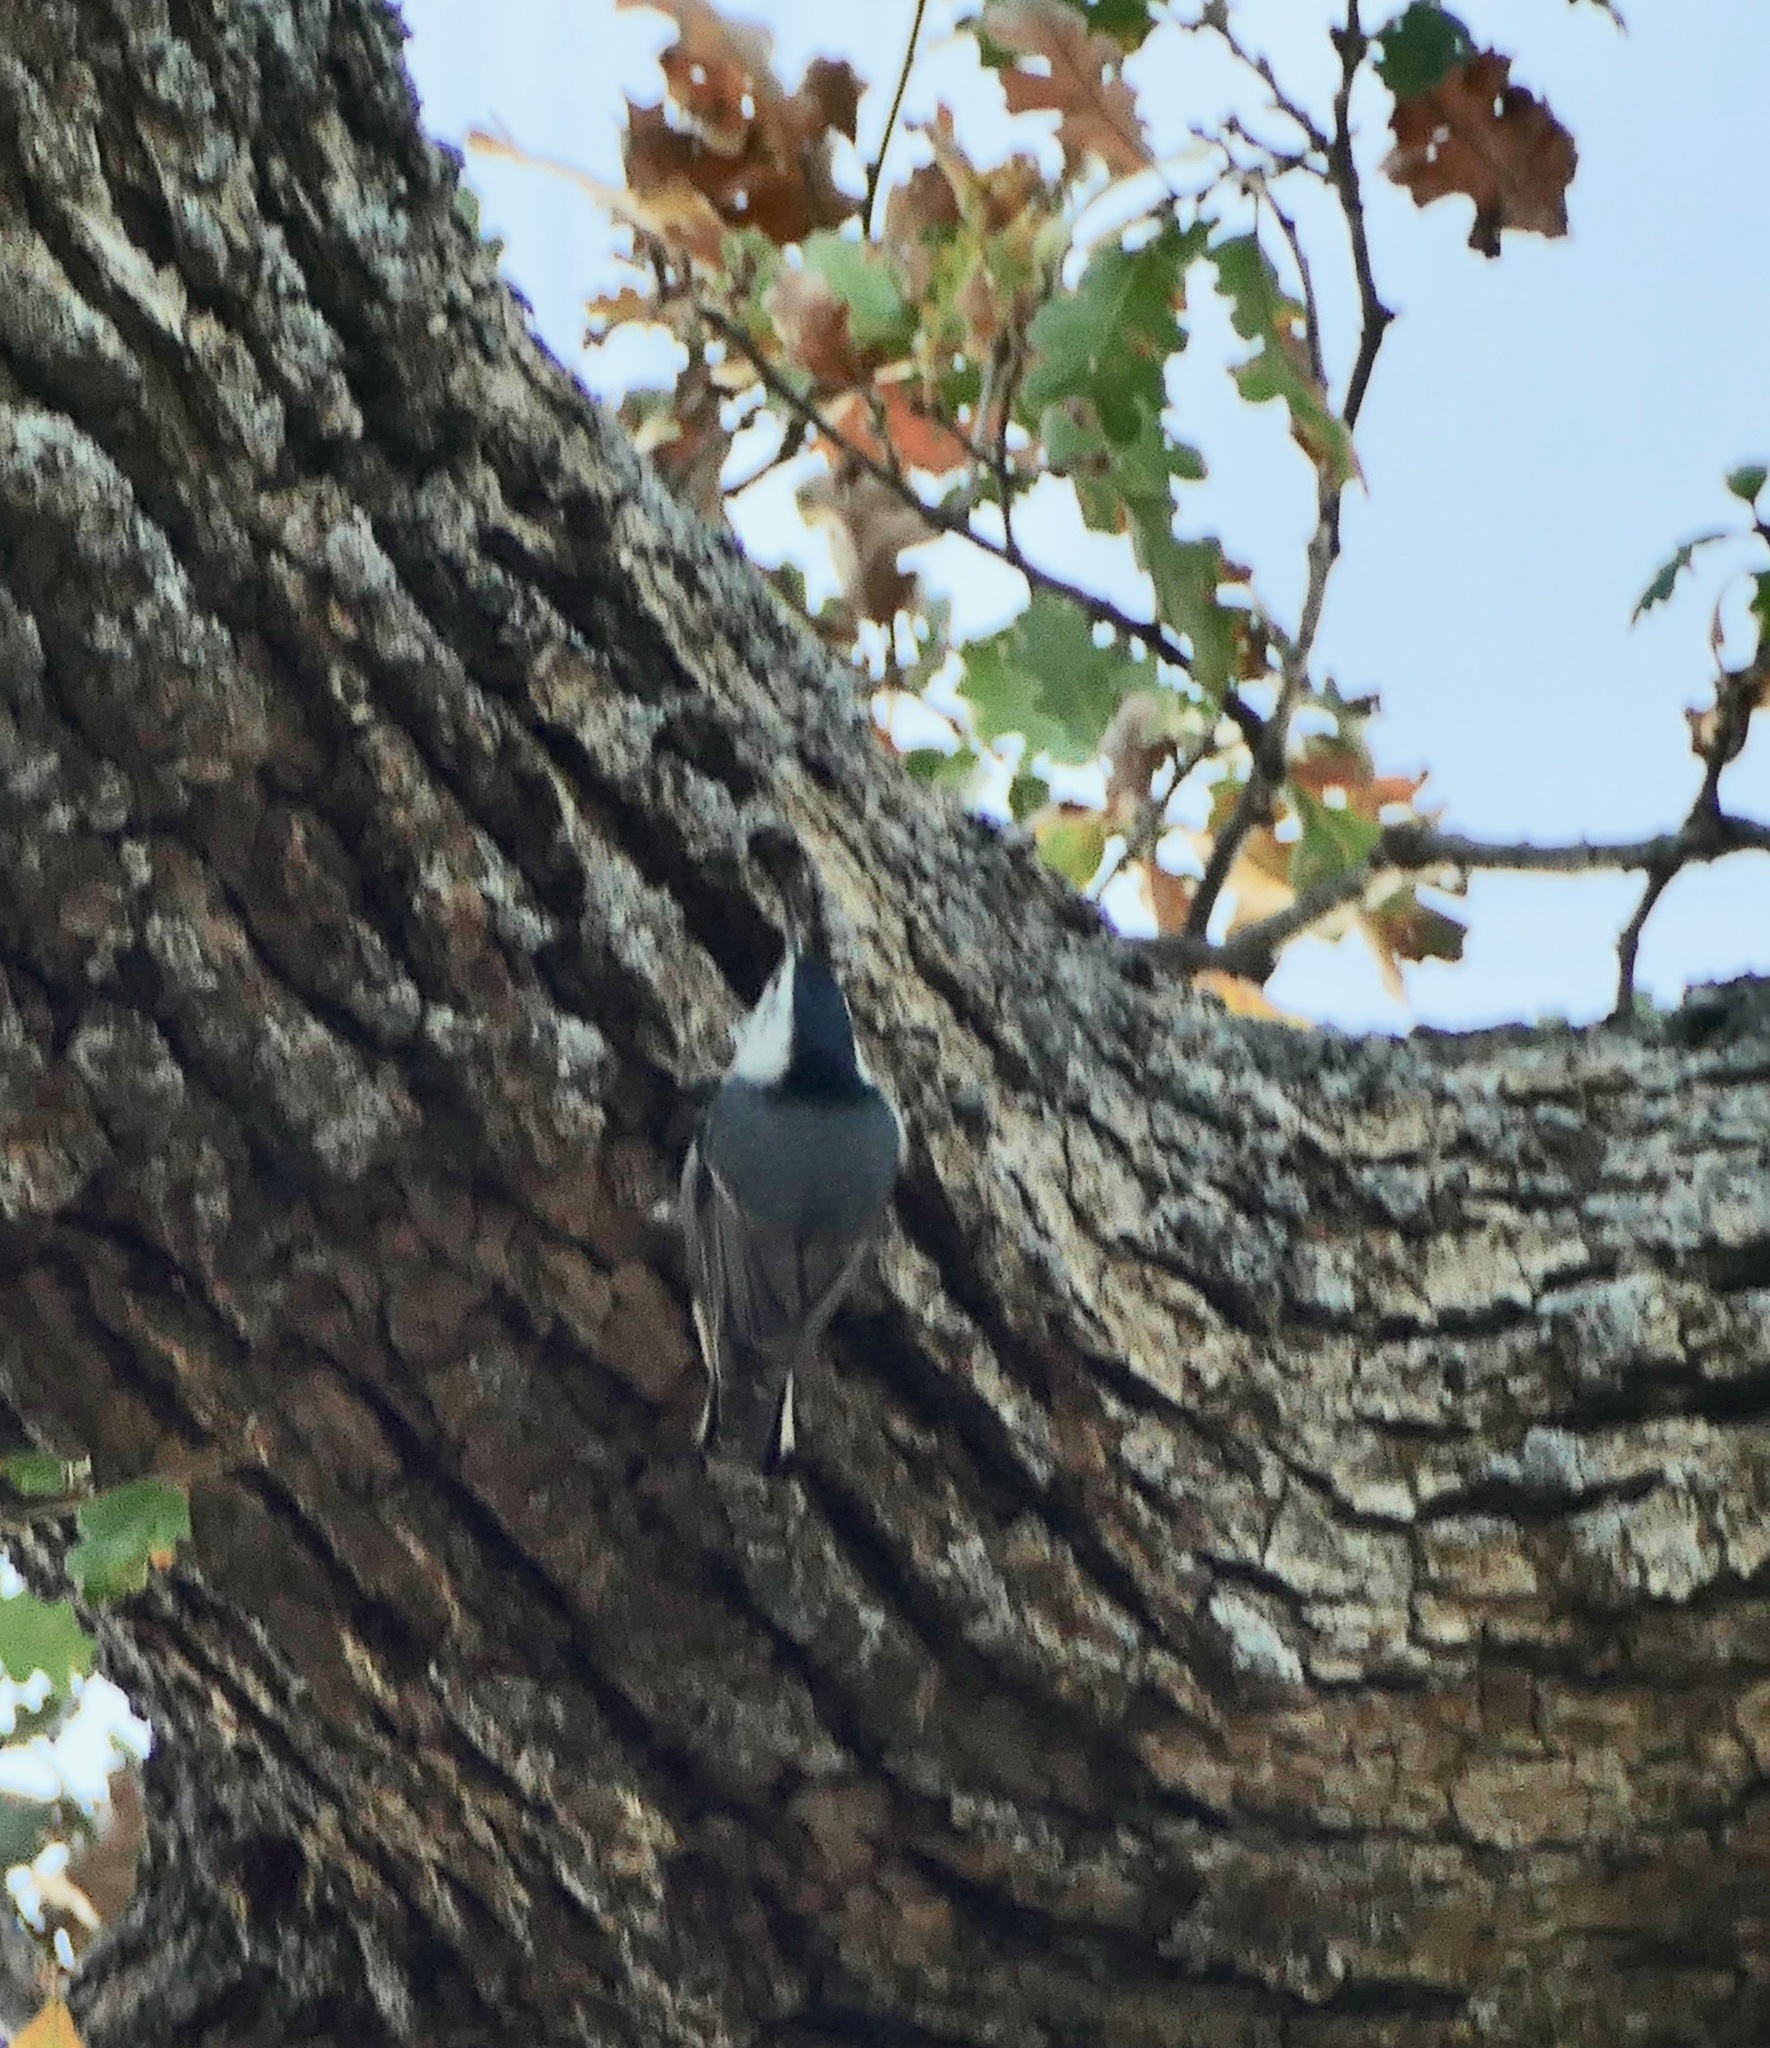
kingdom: Animalia
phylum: Chordata
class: Aves
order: Passeriformes
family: Sittidae
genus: Sitta
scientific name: Sitta carolinensis
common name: White-breasted nuthatch
